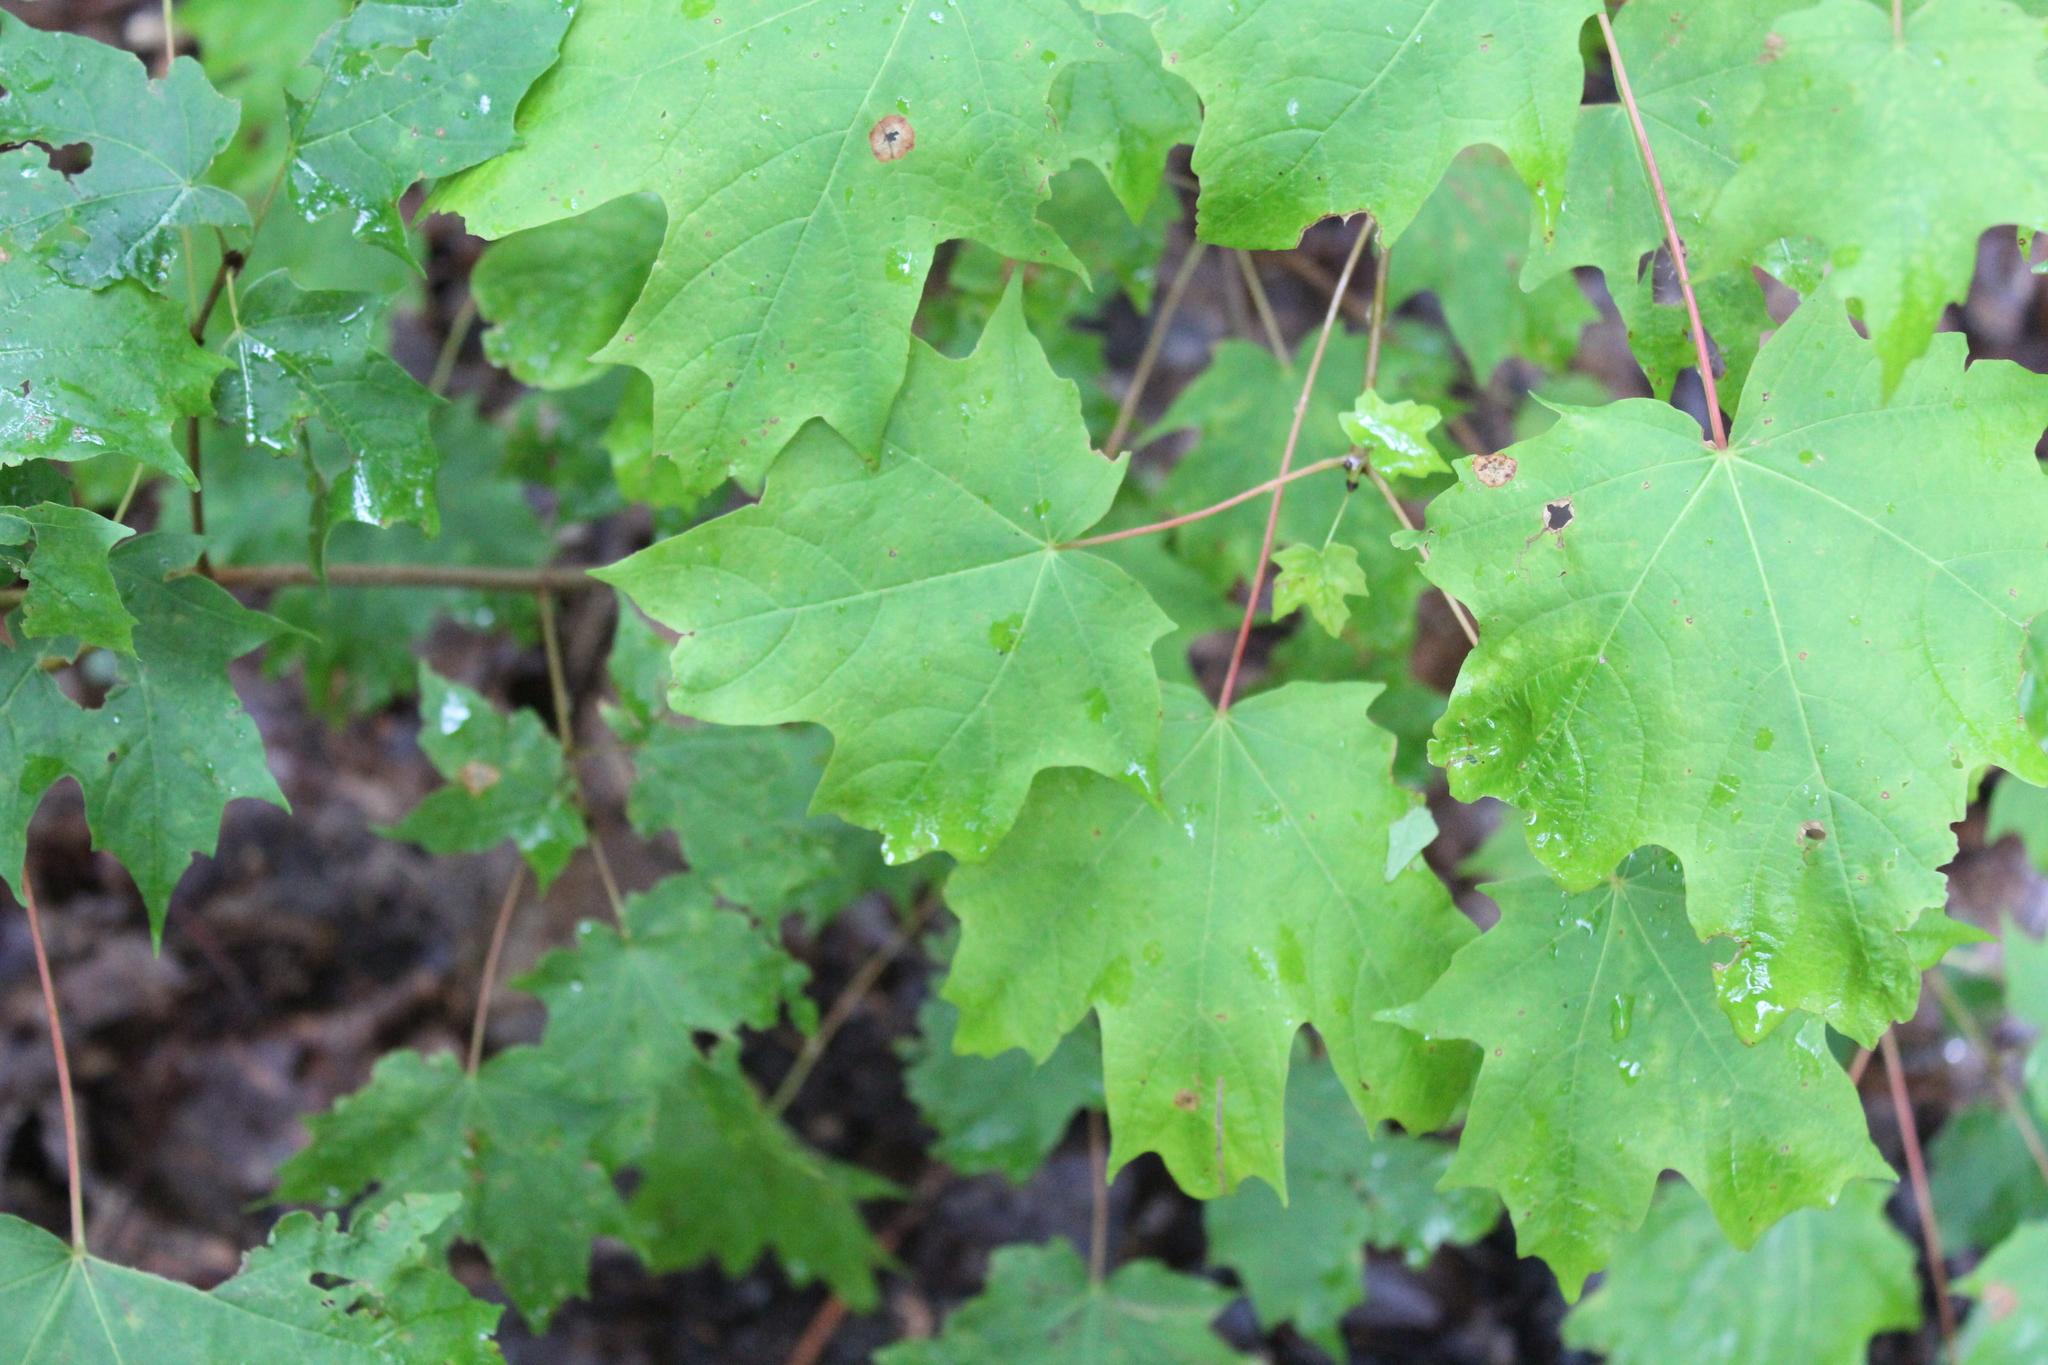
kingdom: Plantae
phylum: Tracheophyta
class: Magnoliopsida
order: Sapindales
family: Sapindaceae
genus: Acer
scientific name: Acer saccharum
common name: Sugar maple
